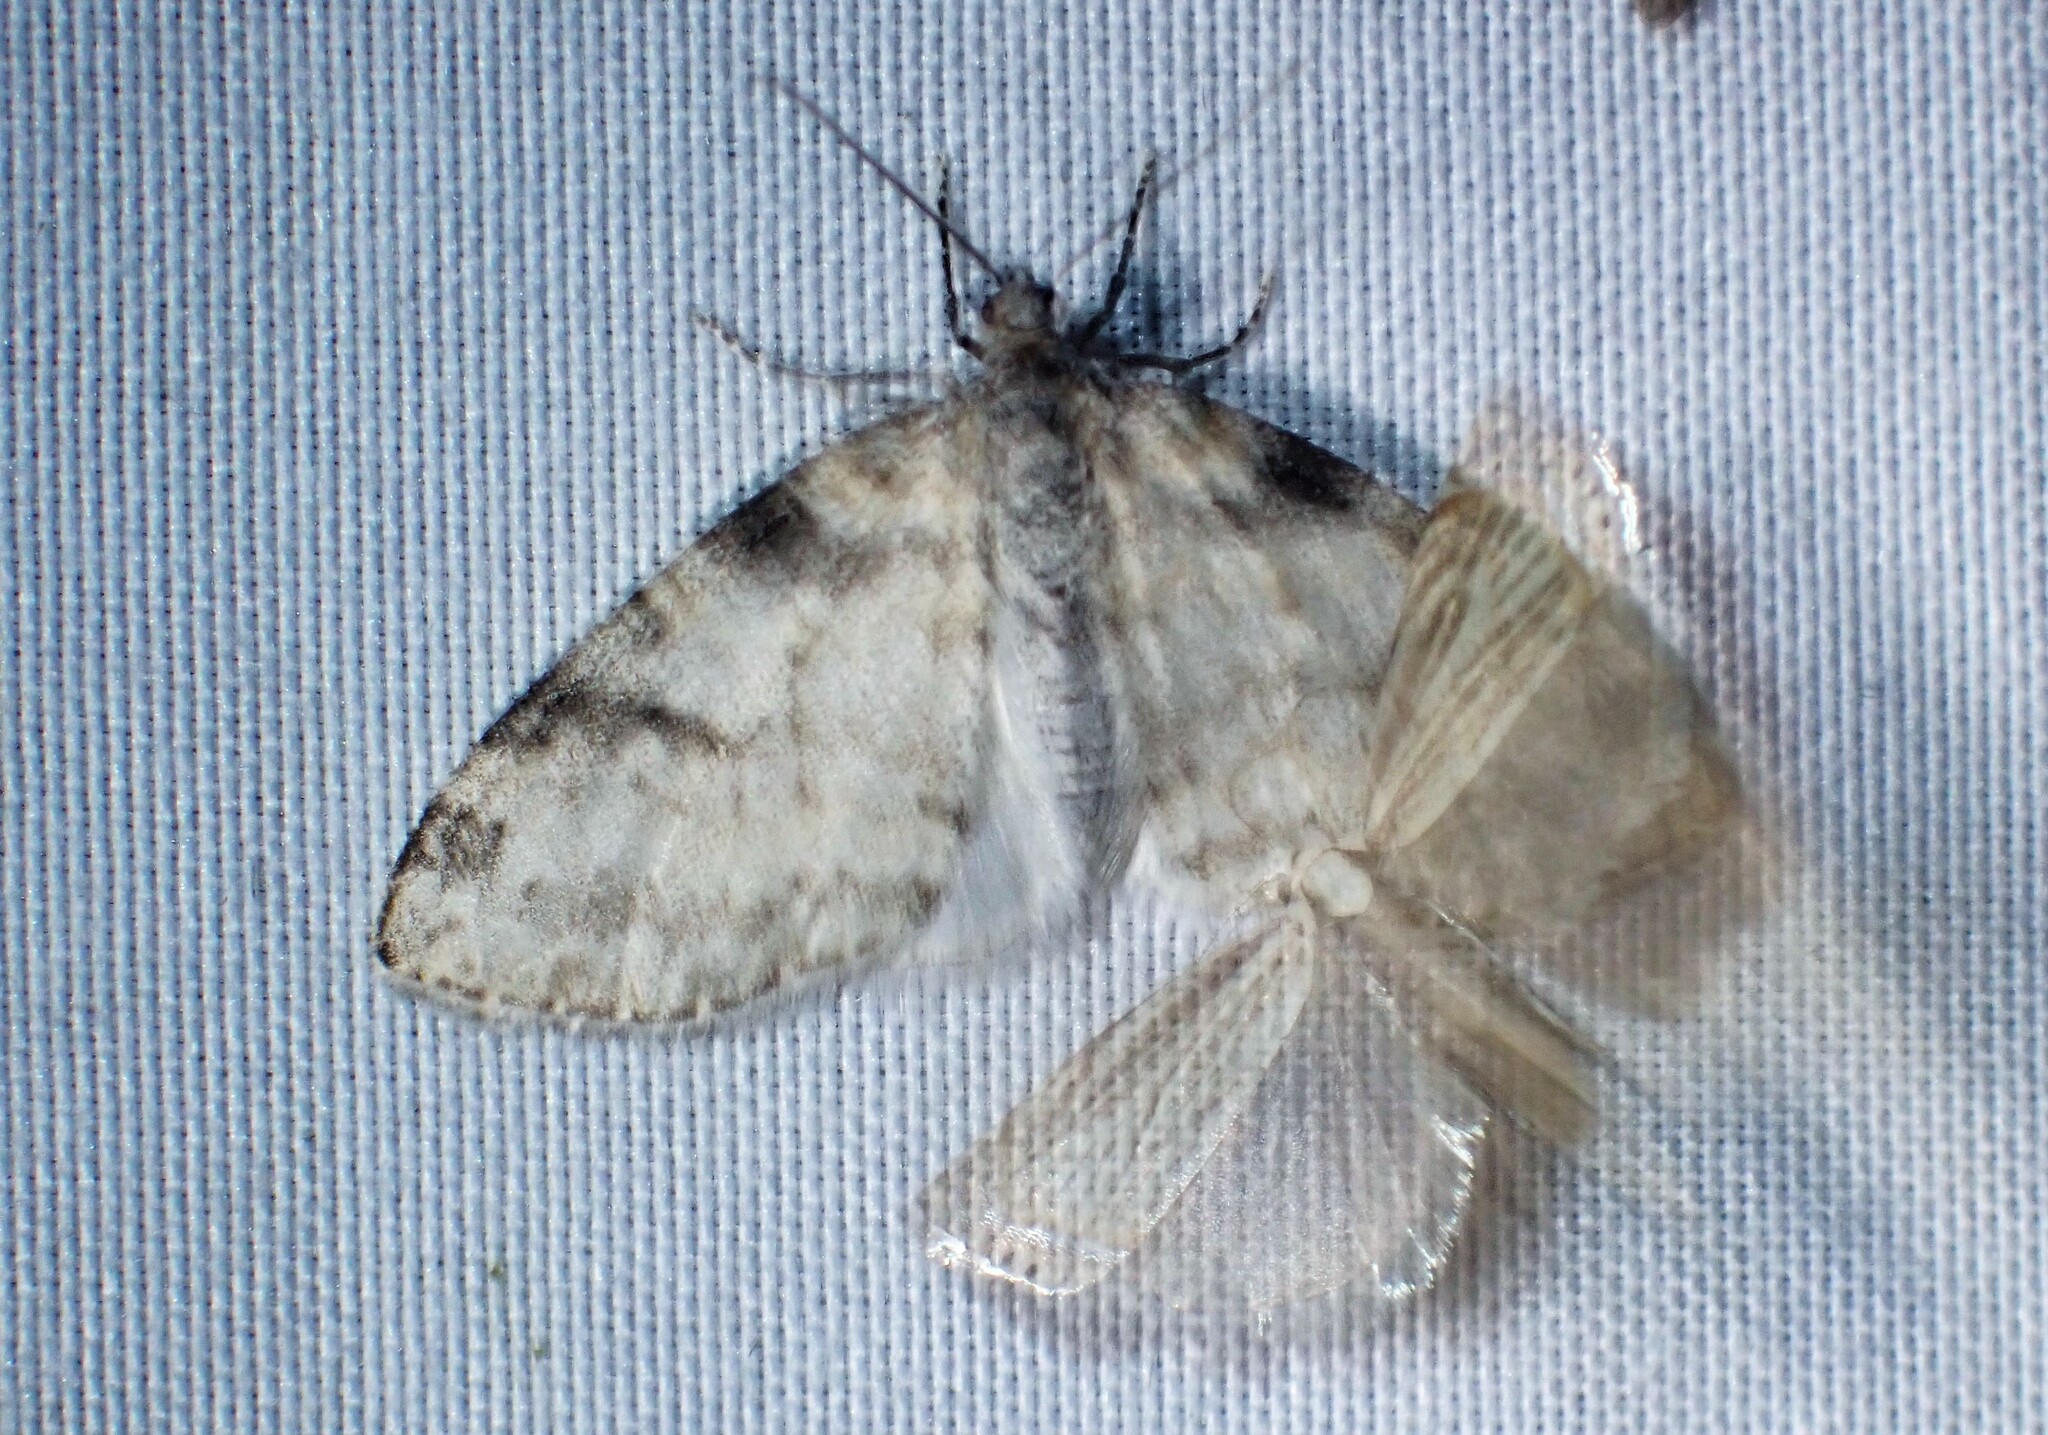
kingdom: Animalia
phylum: Arthropoda
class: Insecta
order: Lepidoptera
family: Geometridae
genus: Lobophora
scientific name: Lobophora nivigerata
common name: Powdered bigwing
